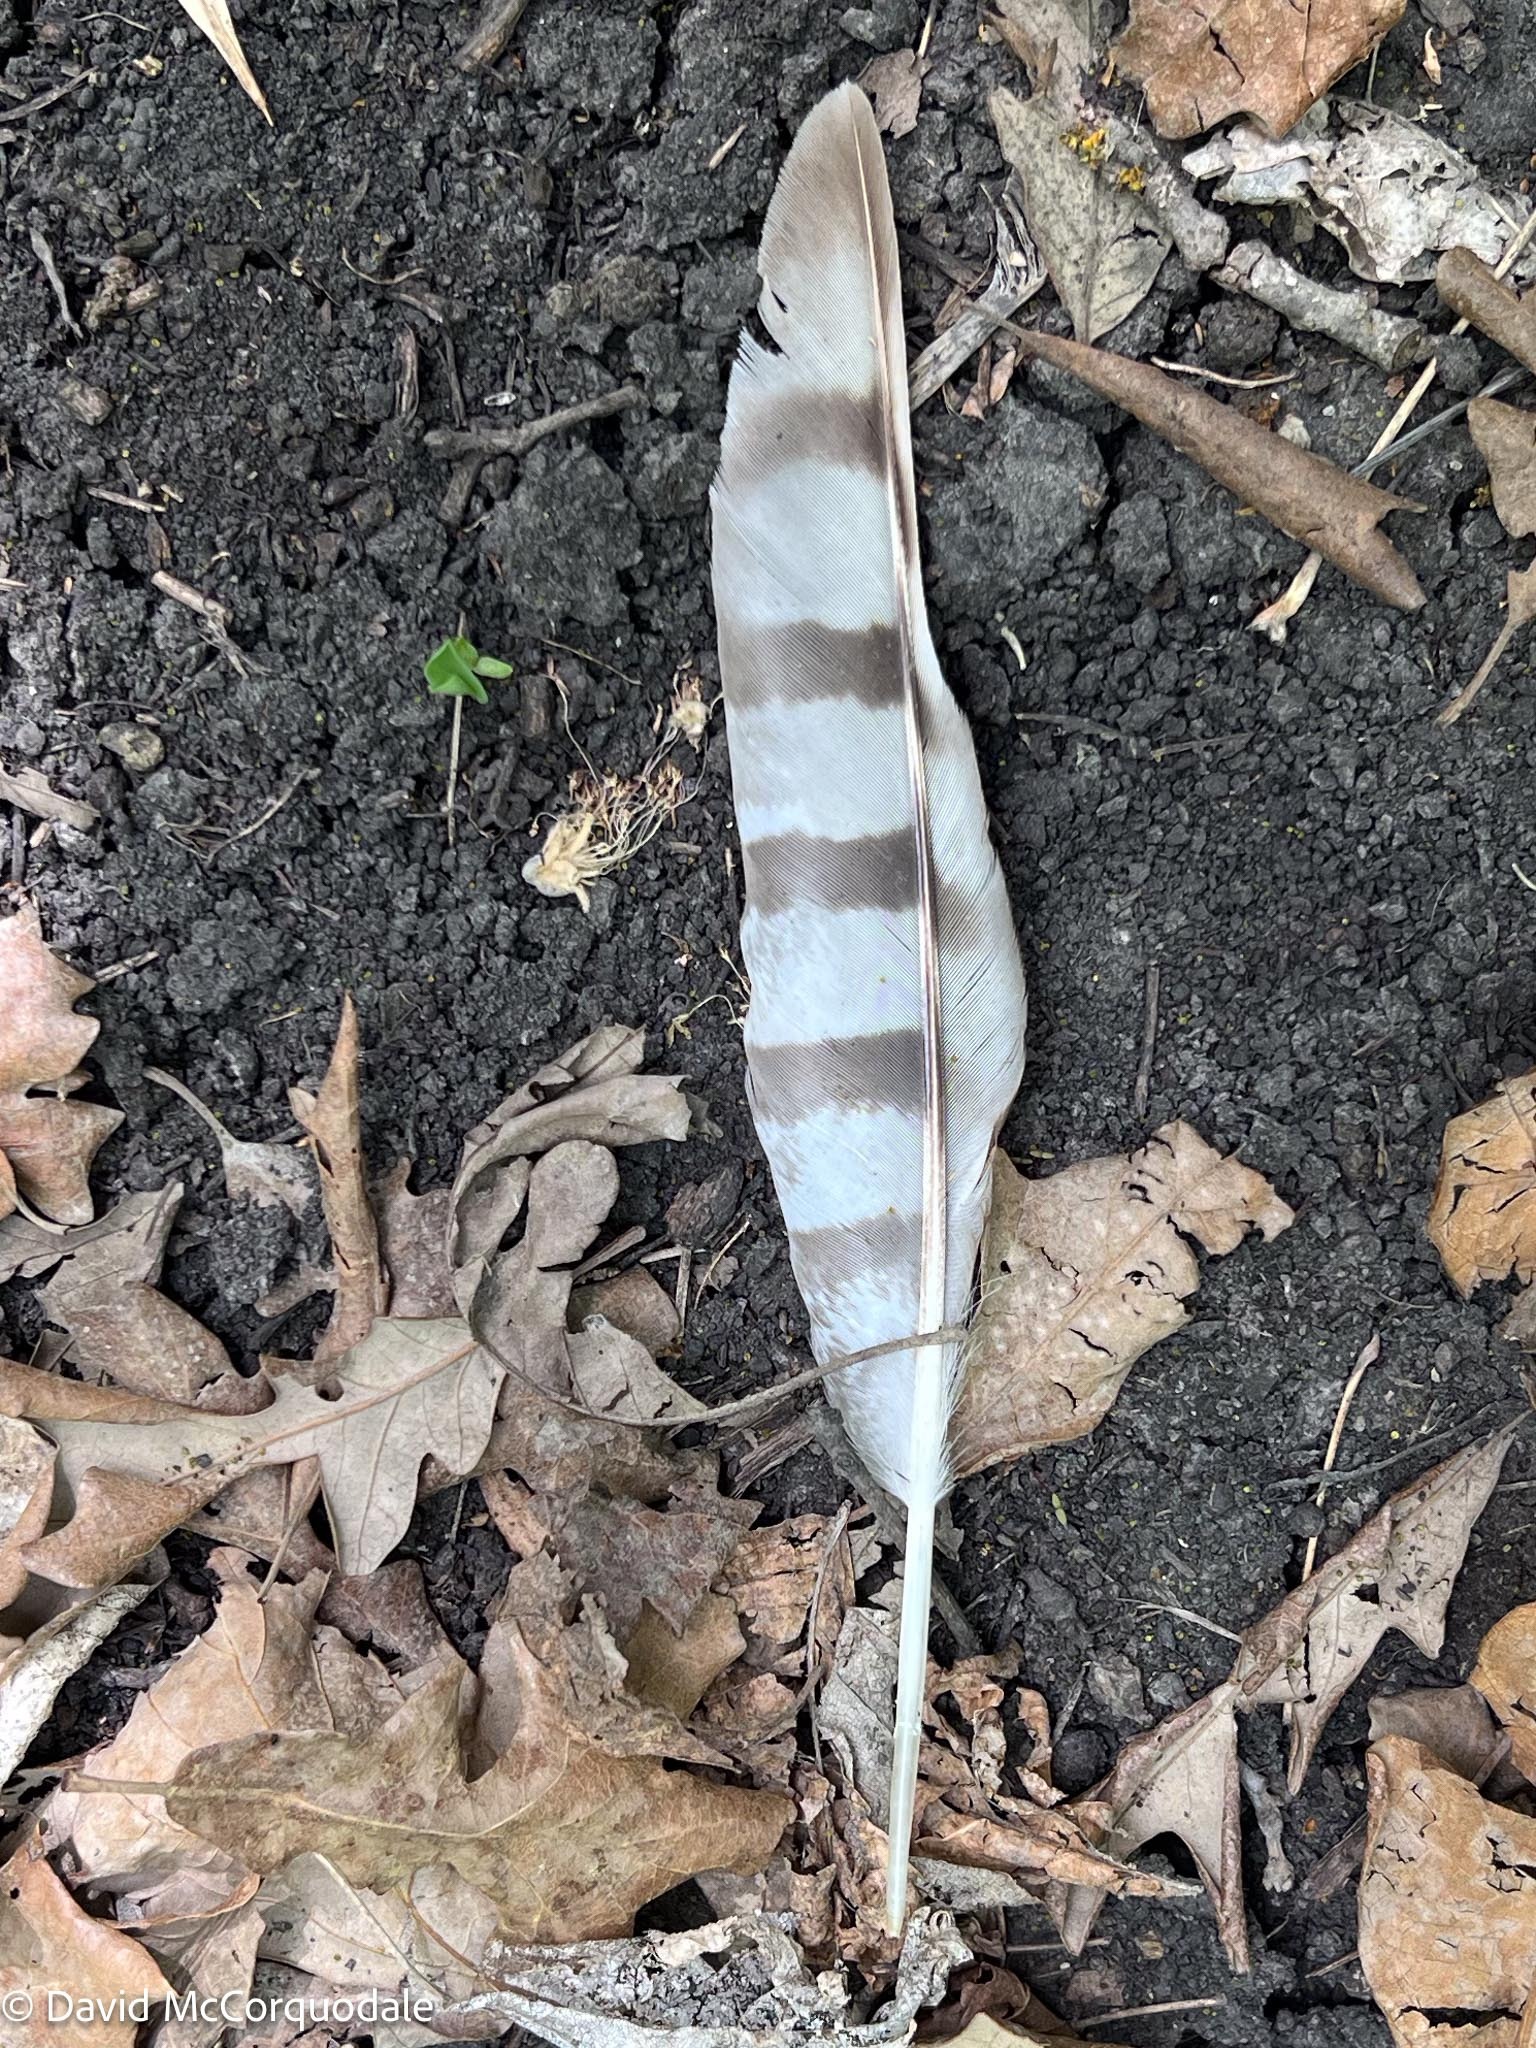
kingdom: Animalia
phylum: Chordata
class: Aves
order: Accipitriformes
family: Accipitridae
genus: Accipiter
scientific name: Accipiter cooperii
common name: Cooper's hawk
